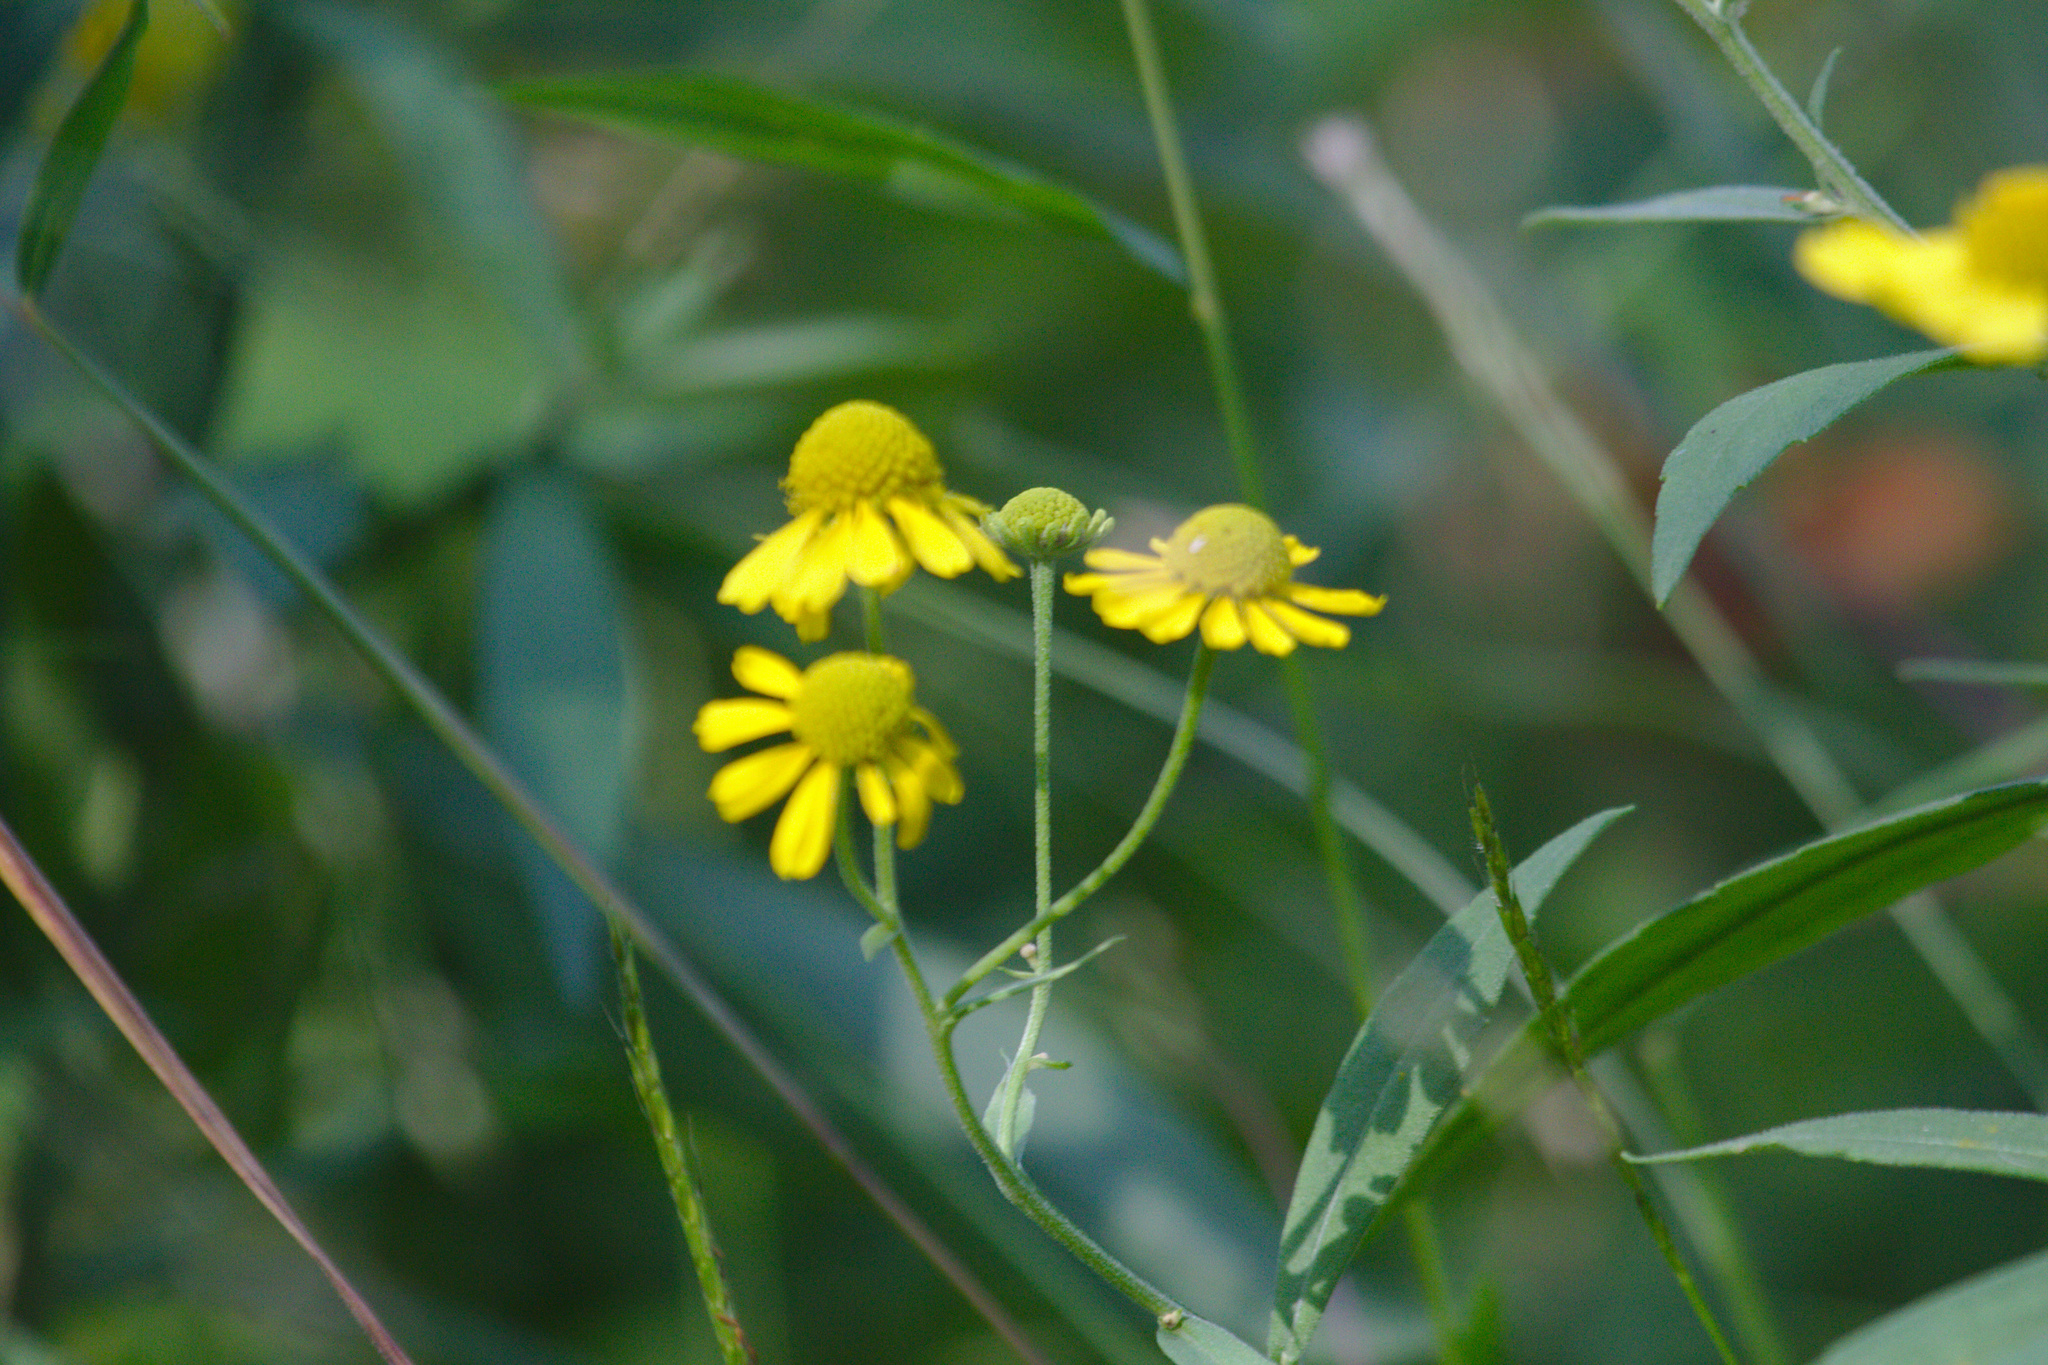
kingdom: Plantae
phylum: Tracheophyta
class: Magnoliopsida
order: Asterales
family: Asteraceae
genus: Helenium
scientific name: Helenium autumnale
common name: Sneezeweed
